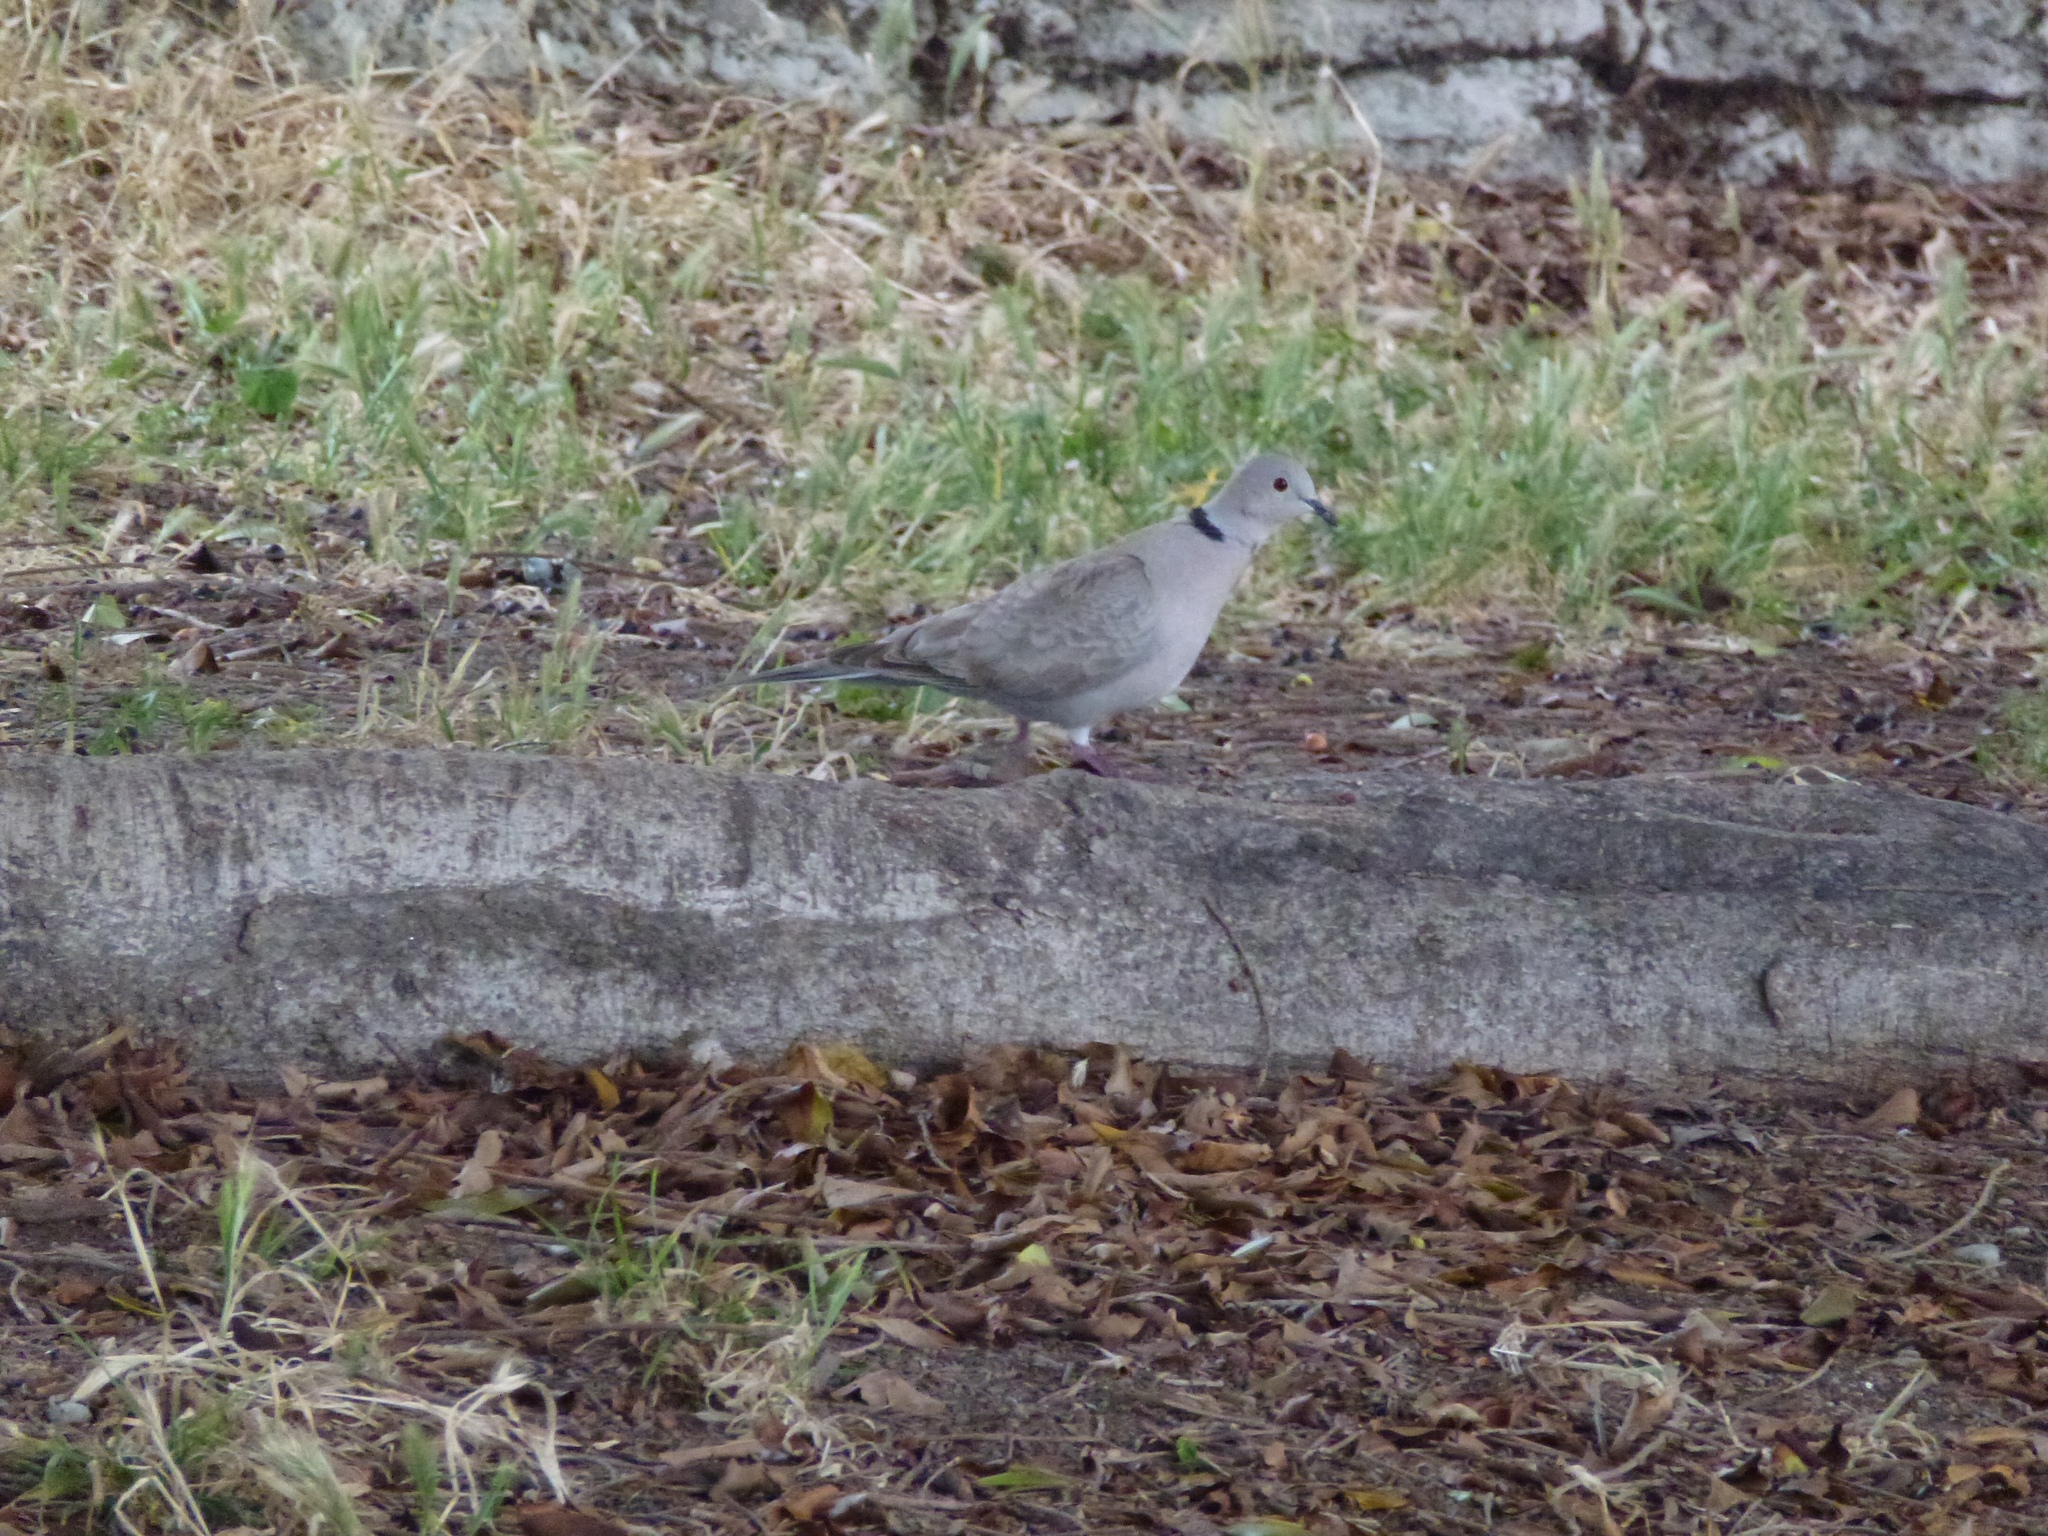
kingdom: Animalia
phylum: Chordata
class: Aves
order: Columbiformes
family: Columbidae
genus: Streptopelia
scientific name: Streptopelia decaocto
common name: Eurasian collared dove
